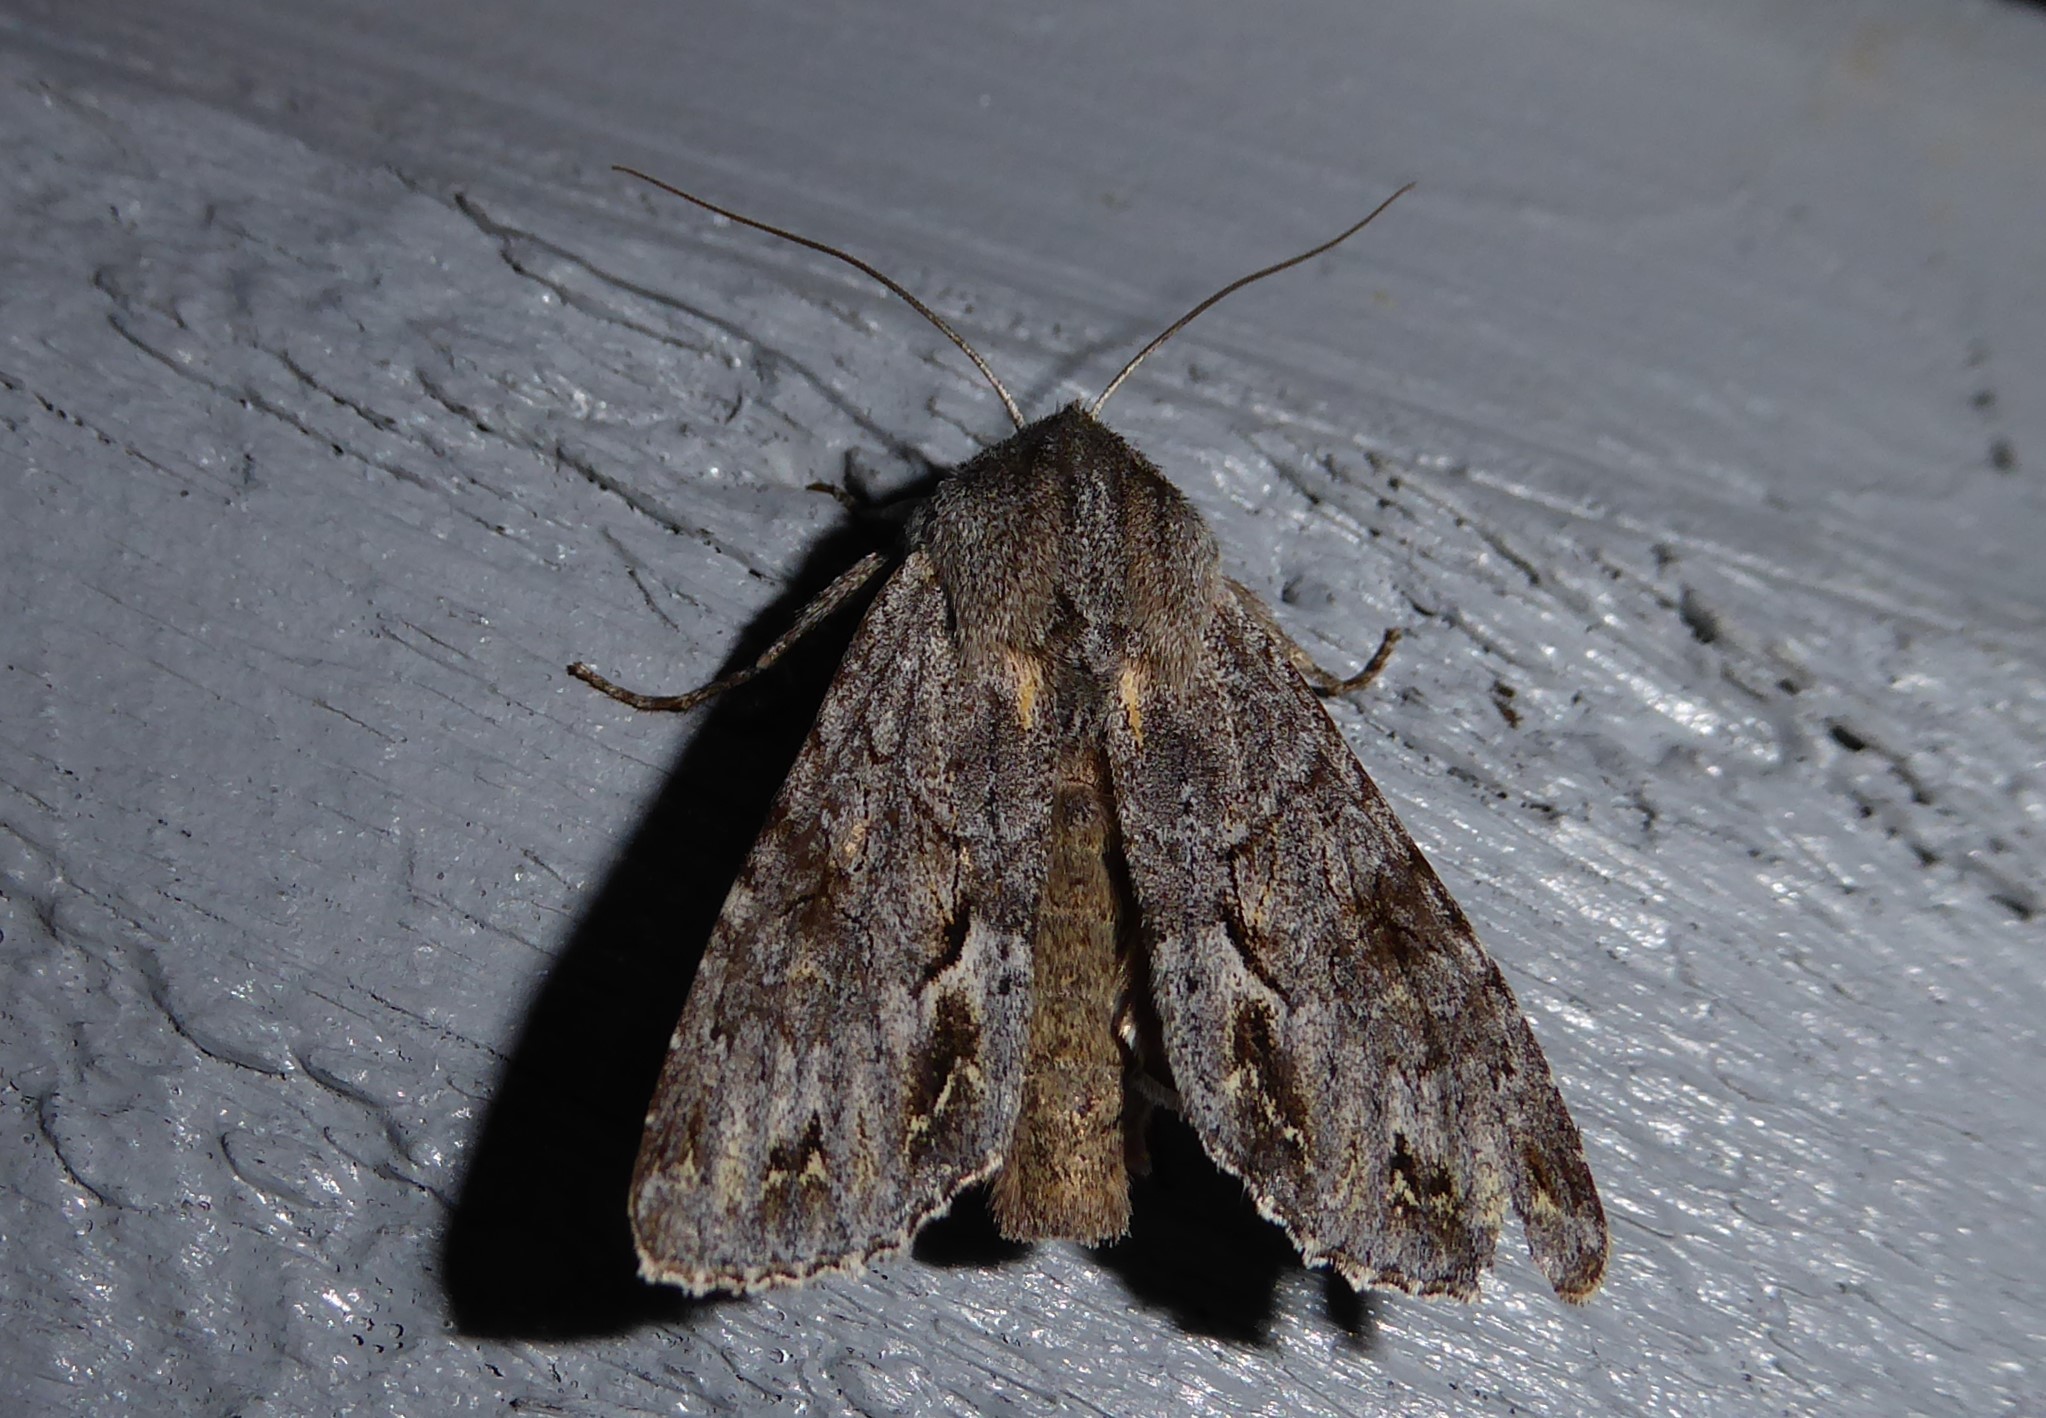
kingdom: Animalia
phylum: Arthropoda
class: Insecta
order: Lepidoptera
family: Noctuidae
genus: Ichneutica
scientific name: Ichneutica
